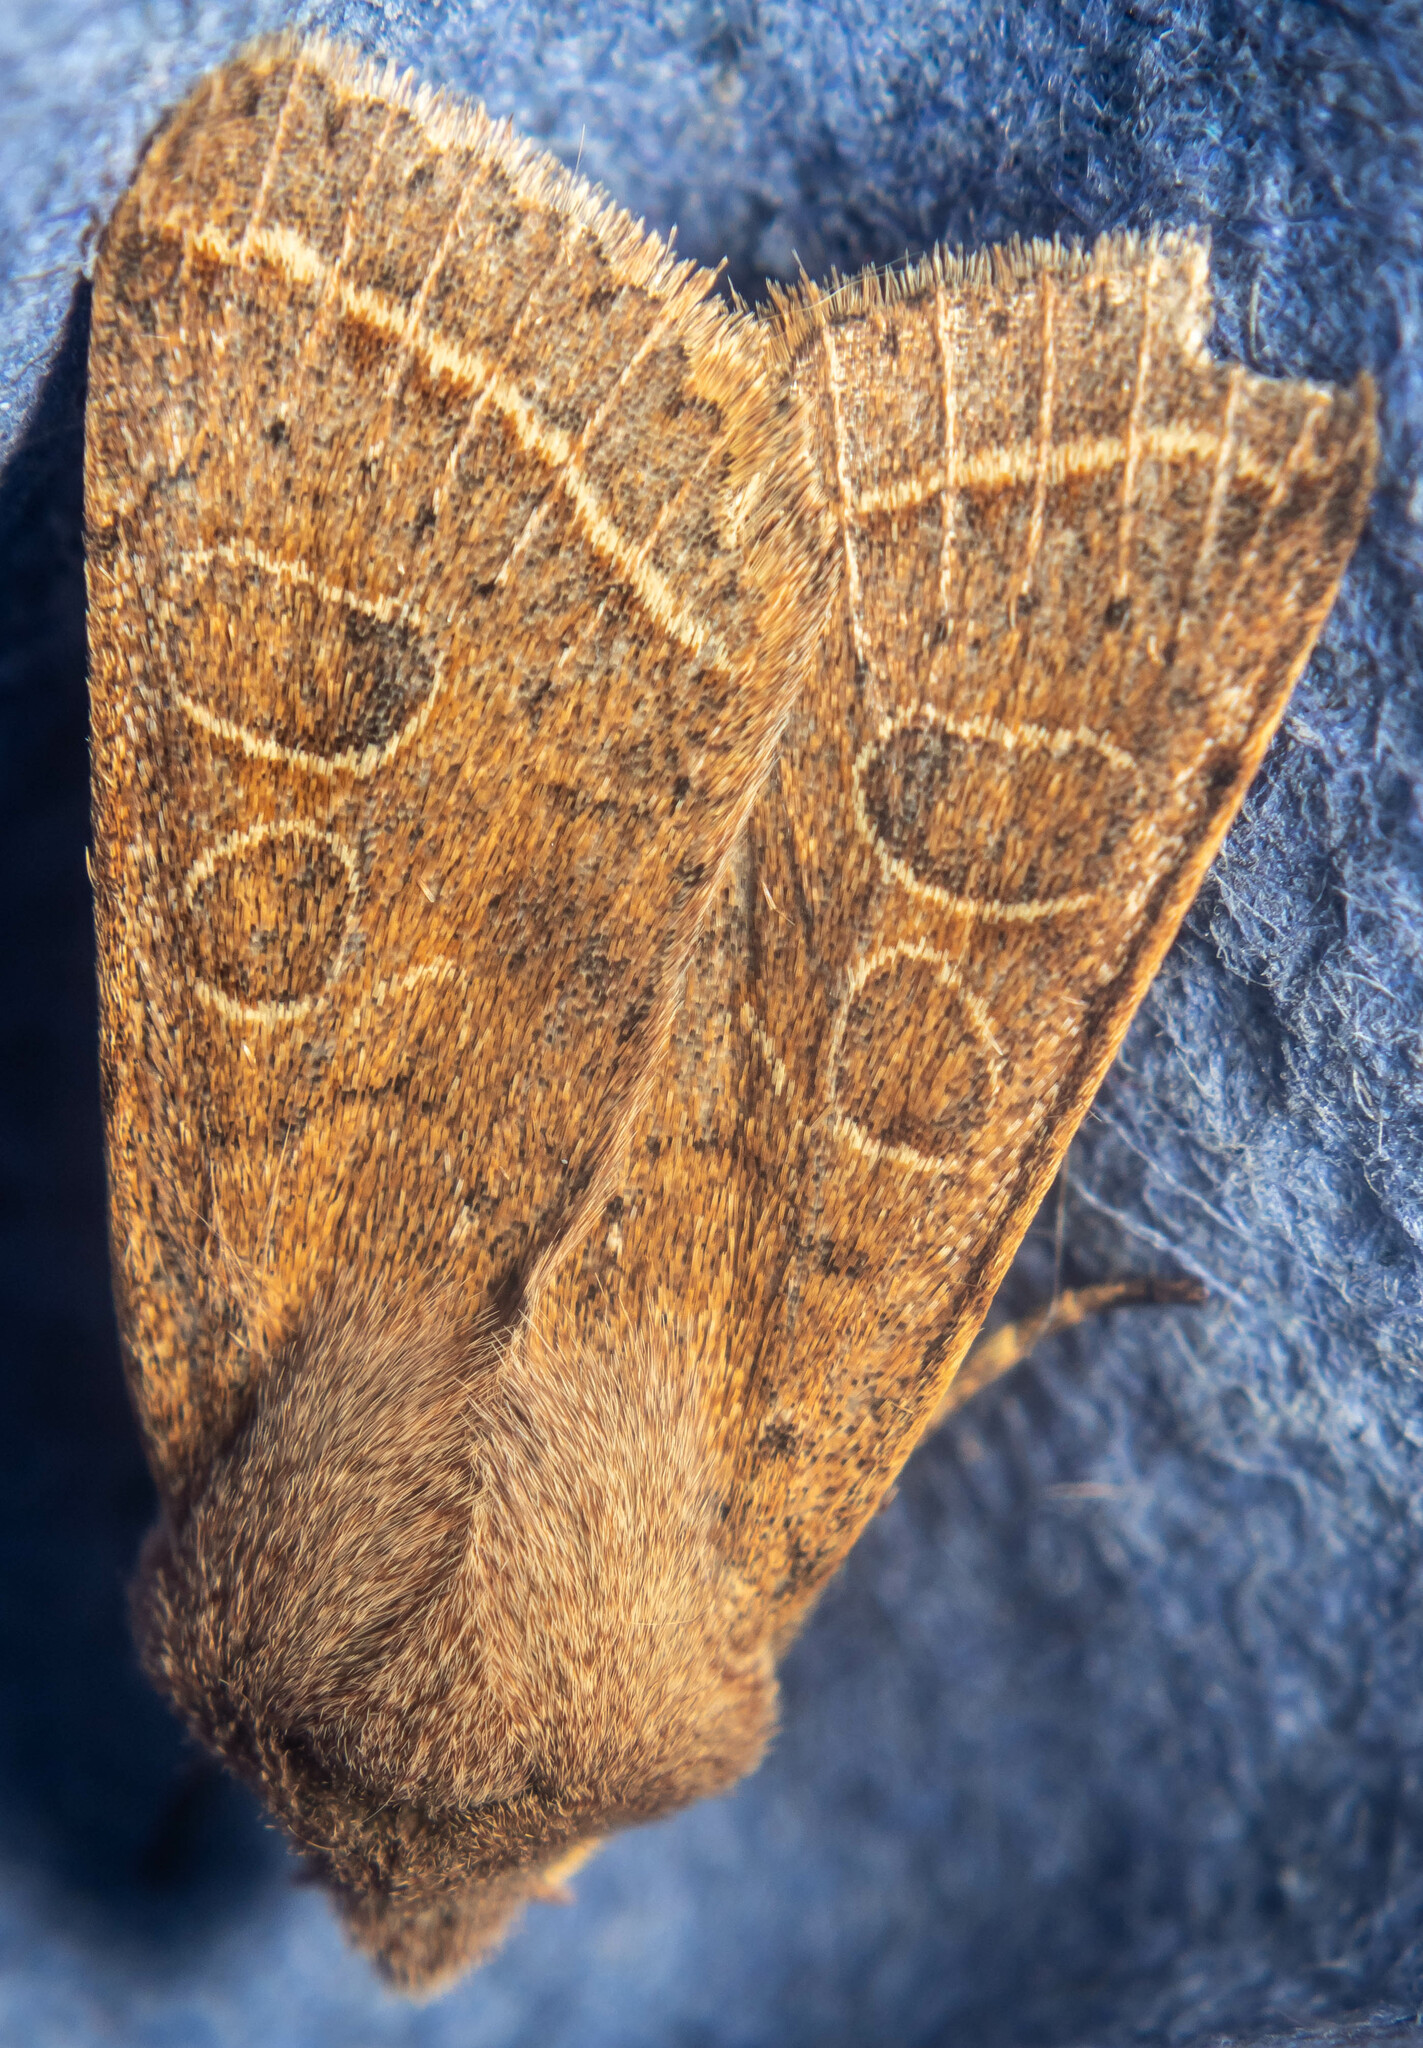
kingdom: Animalia
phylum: Arthropoda
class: Insecta
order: Lepidoptera
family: Noctuidae
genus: Orthosia
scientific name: Orthosia cerasi
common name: Common quaker
